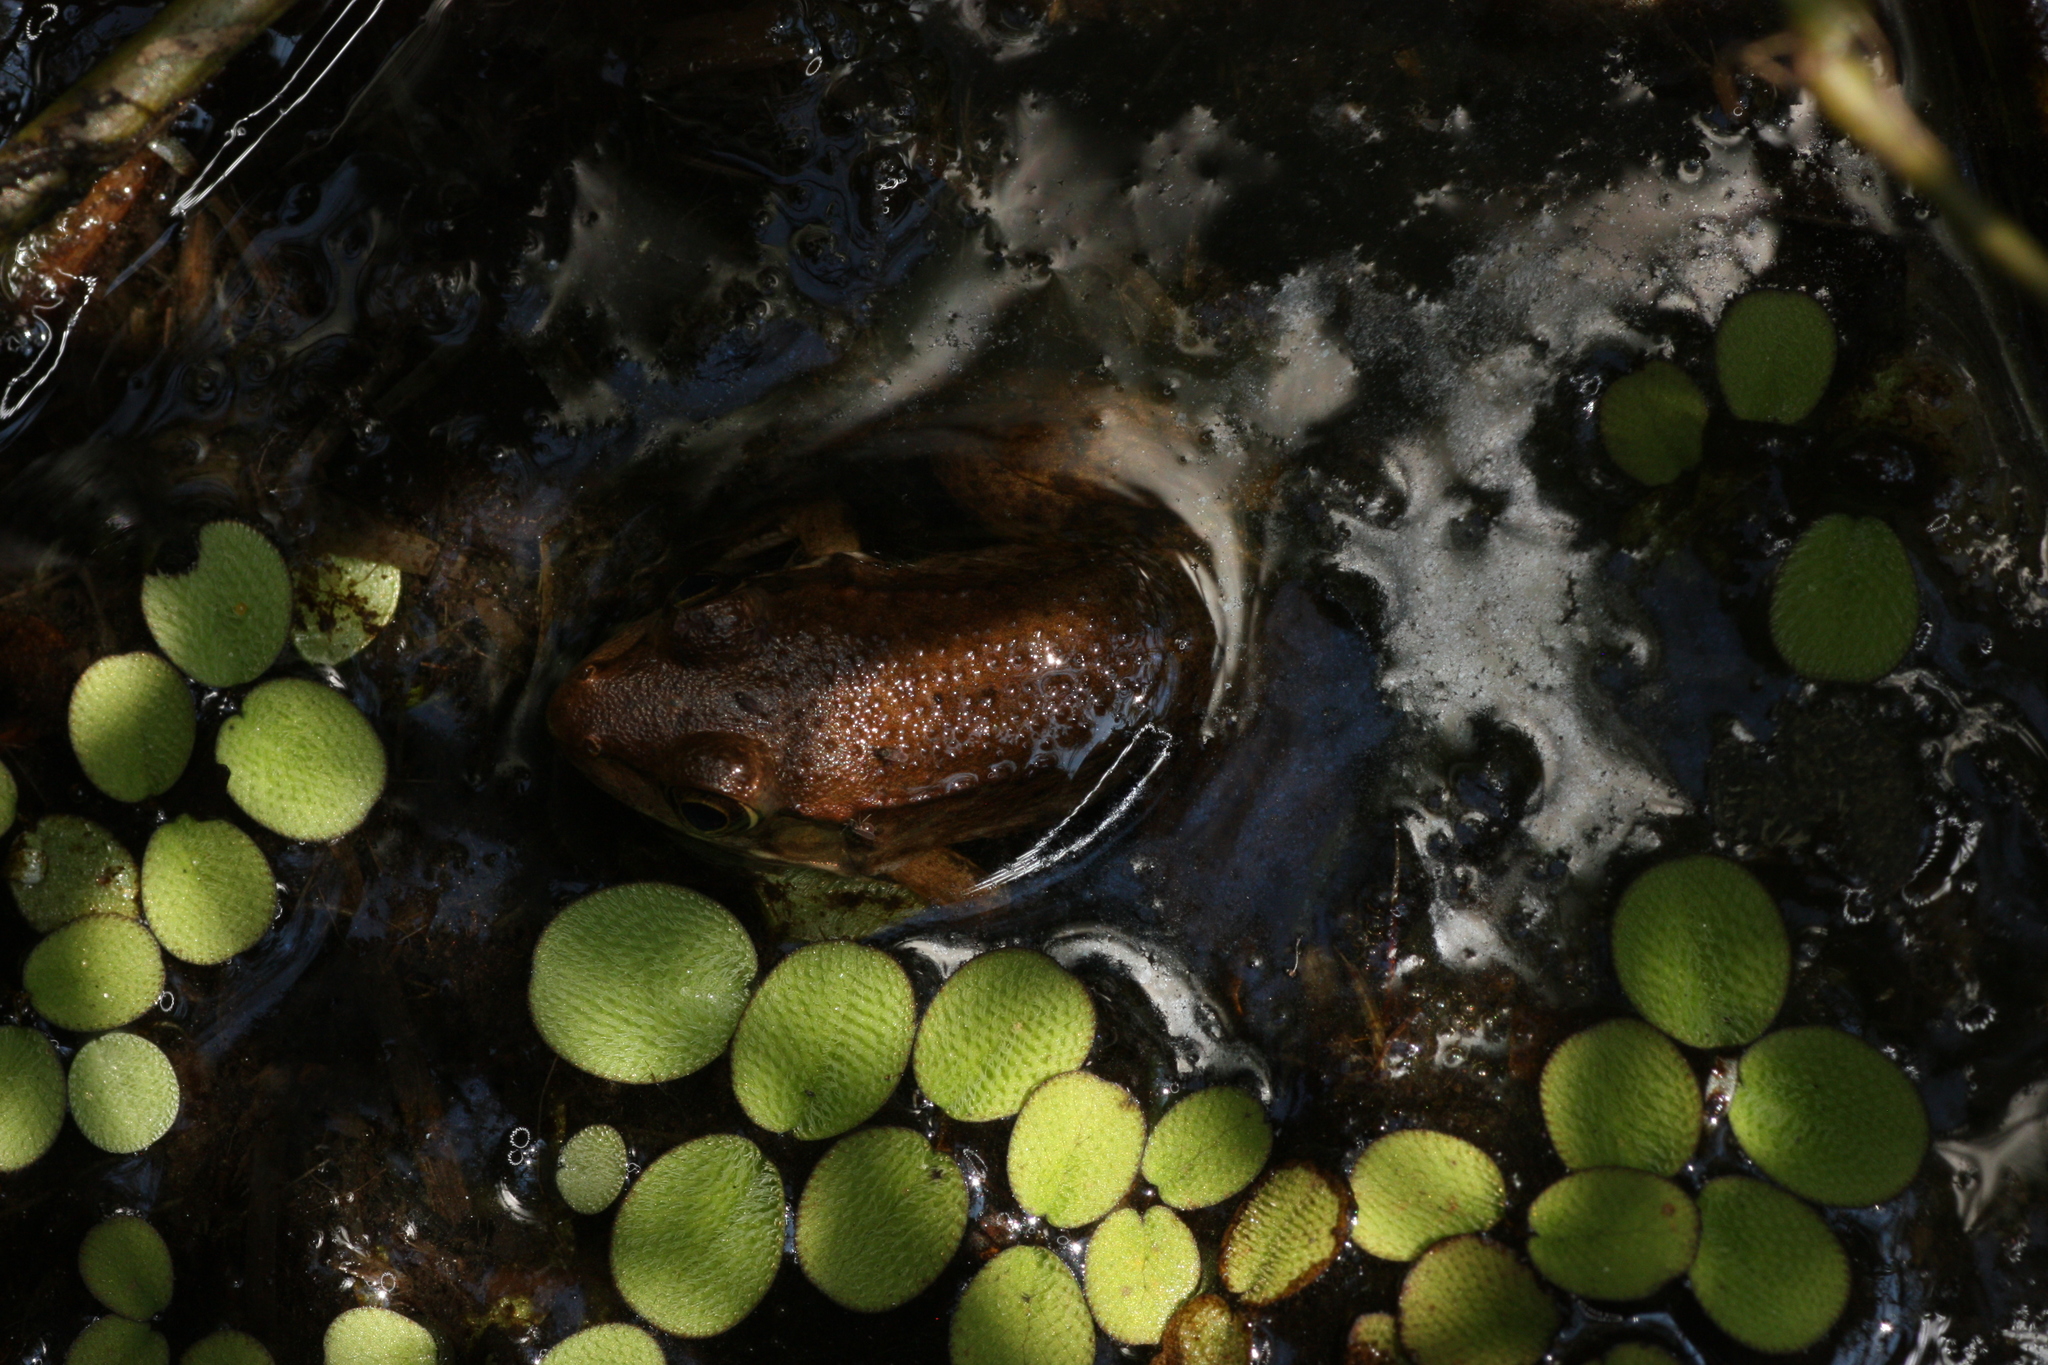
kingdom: Animalia
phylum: Chordata
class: Amphibia
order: Anura
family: Ranidae
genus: Lithobates
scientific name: Lithobates clamitans
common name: Green frog
